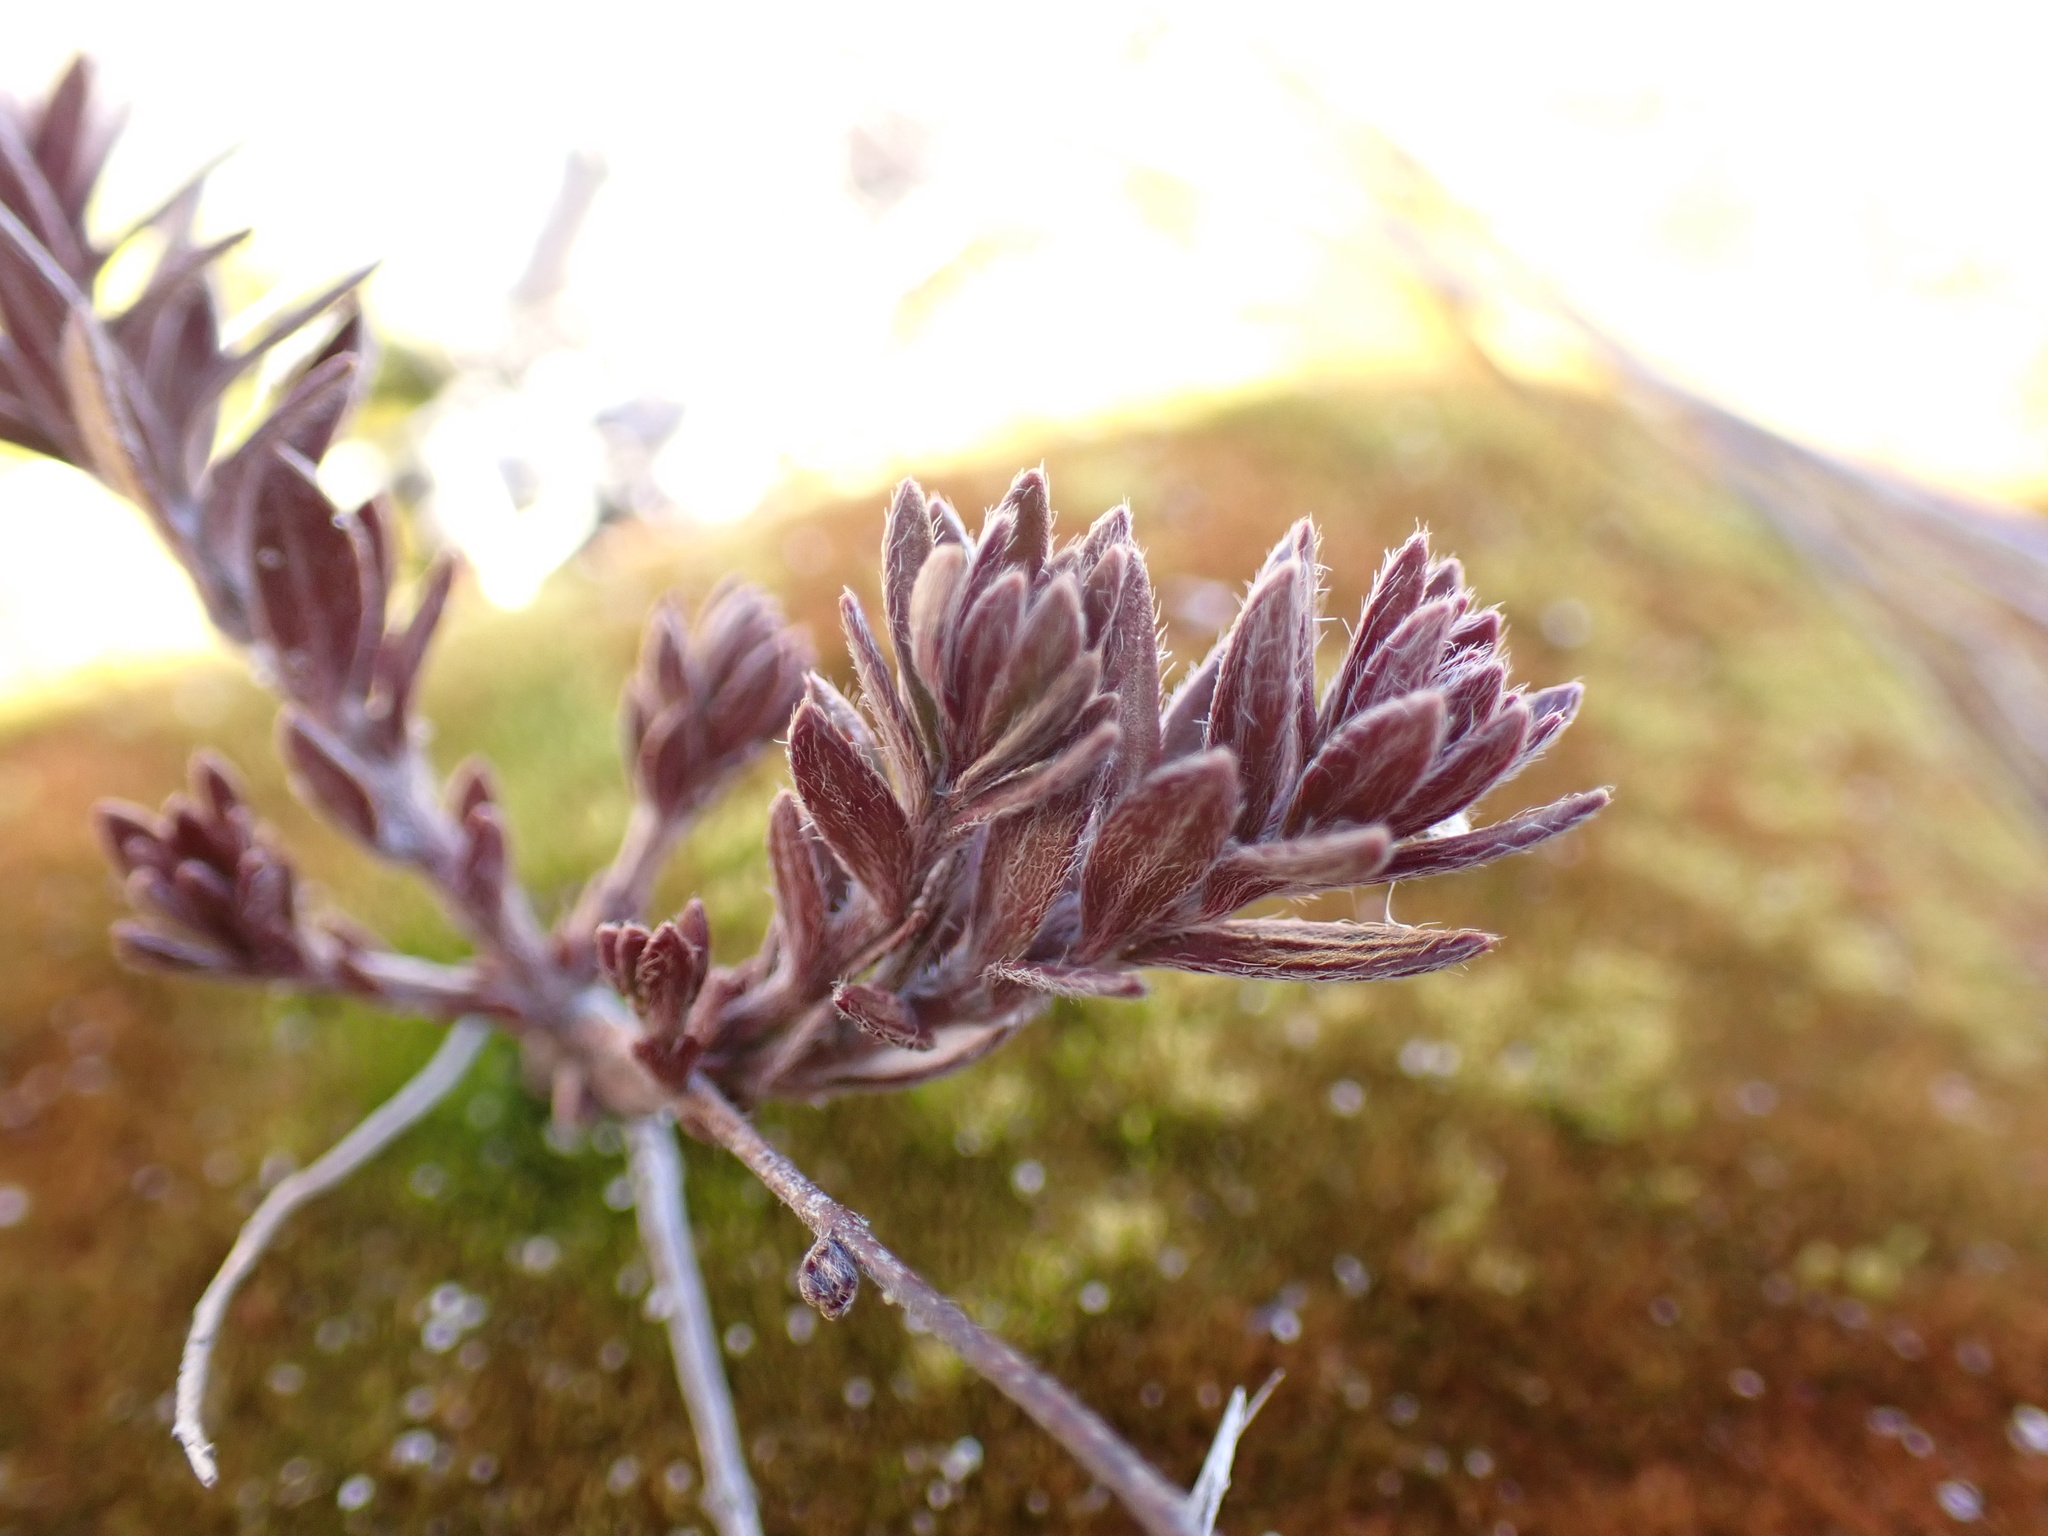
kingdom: Plantae
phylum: Tracheophyta
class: Magnoliopsida
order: Malvales
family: Cistaceae
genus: Lechea
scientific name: Lechea maritima
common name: Beach pinweed
